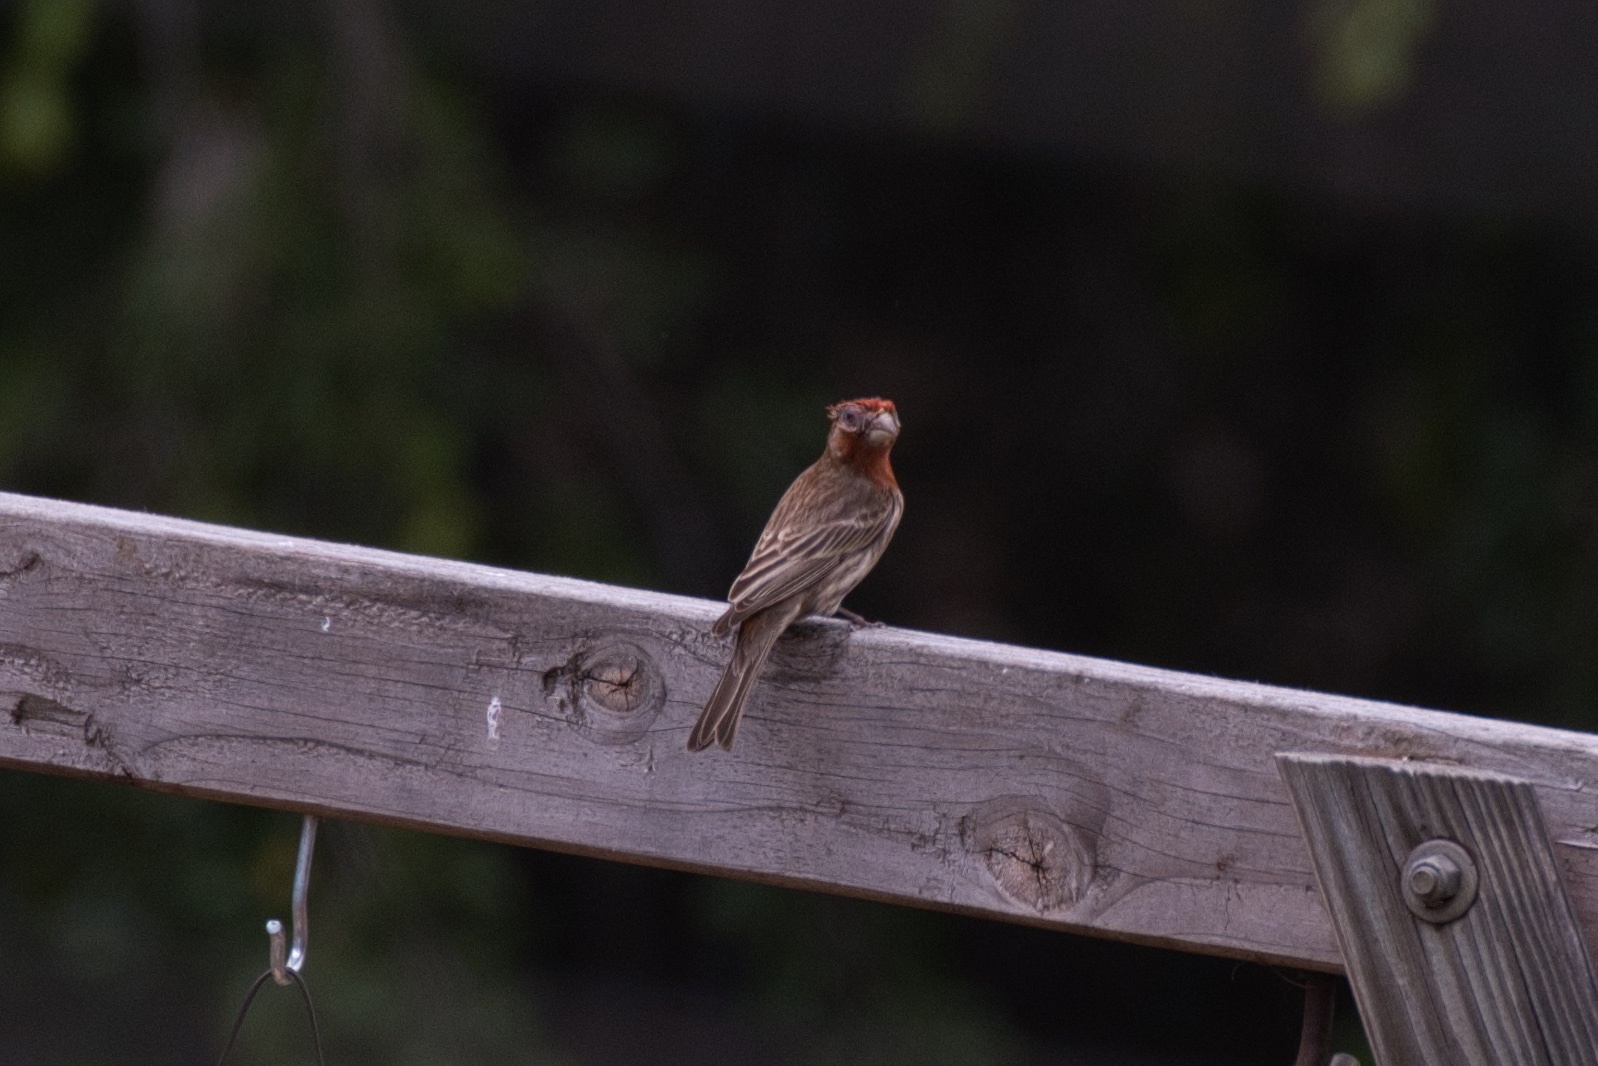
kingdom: Bacteria
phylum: Firmicutes
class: Bacilli
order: Mycoplasmatales
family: Mycoplasmataceae
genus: Mycoplasma
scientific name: Mycoplasma gallisepticum
